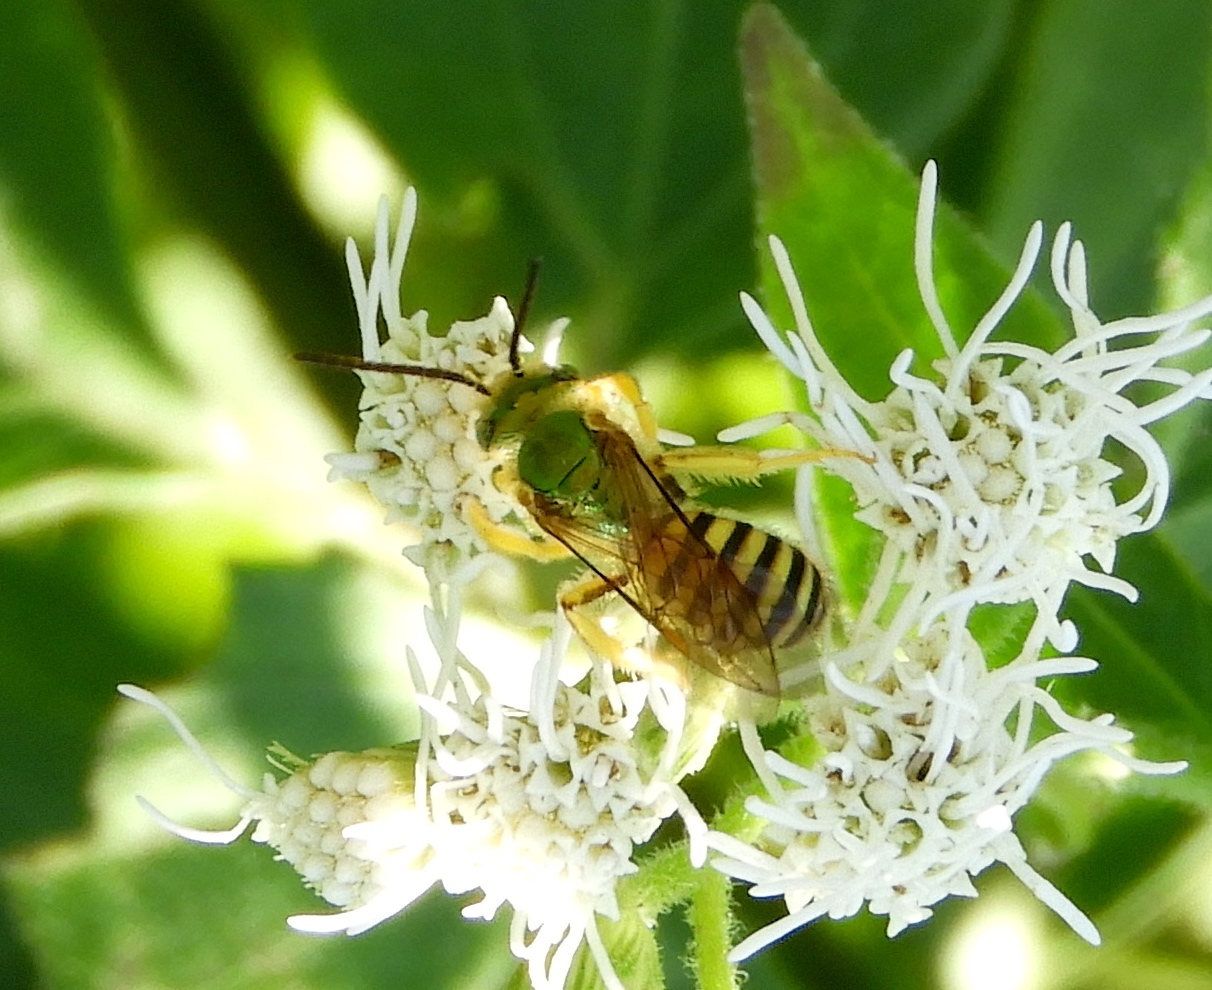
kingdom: Animalia
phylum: Arthropoda
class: Insecta
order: Hymenoptera
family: Halictidae
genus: Agapostemon
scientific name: Agapostemon nasutus
